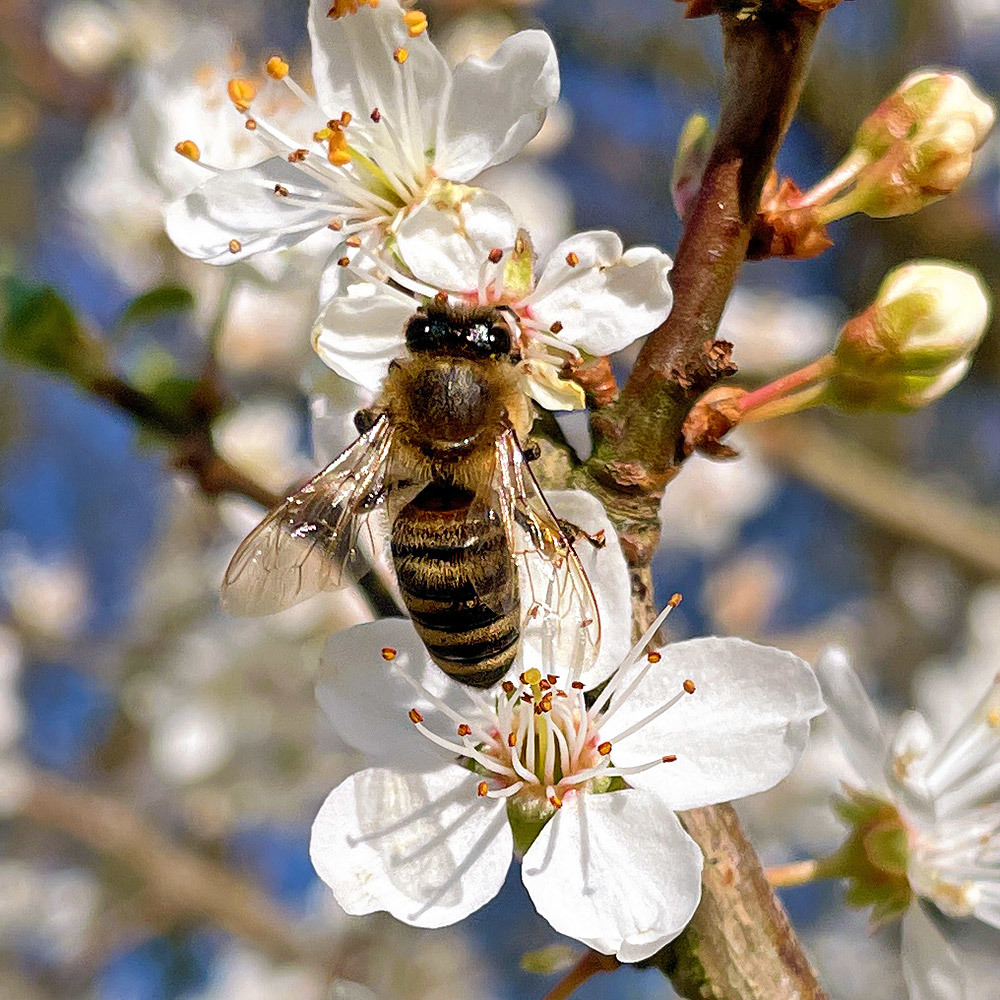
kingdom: Animalia
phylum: Arthropoda
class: Insecta
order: Hymenoptera
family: Apidae
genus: Apis
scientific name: Apis mellifera
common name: Honey bee
